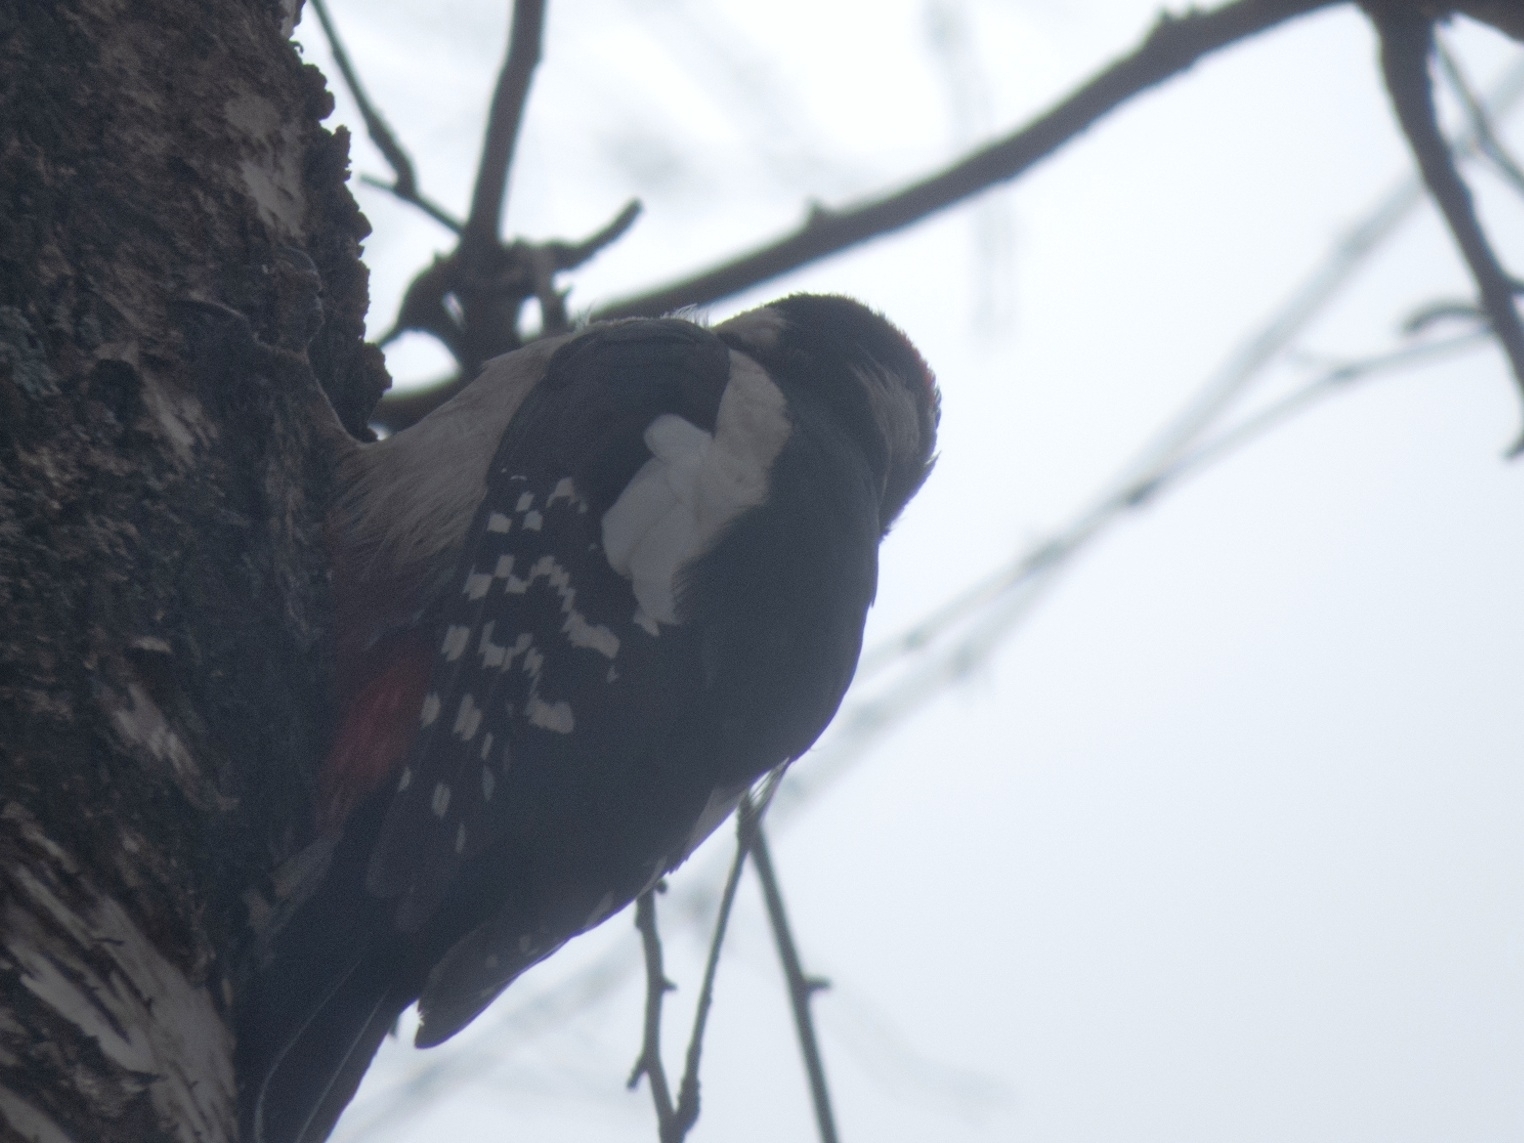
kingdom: Animalia
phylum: Chordata
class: Aves
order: Piciformes
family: Picidae
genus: Dendrocopos
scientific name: Dendrocopos major
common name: Great spotted woodpecker
